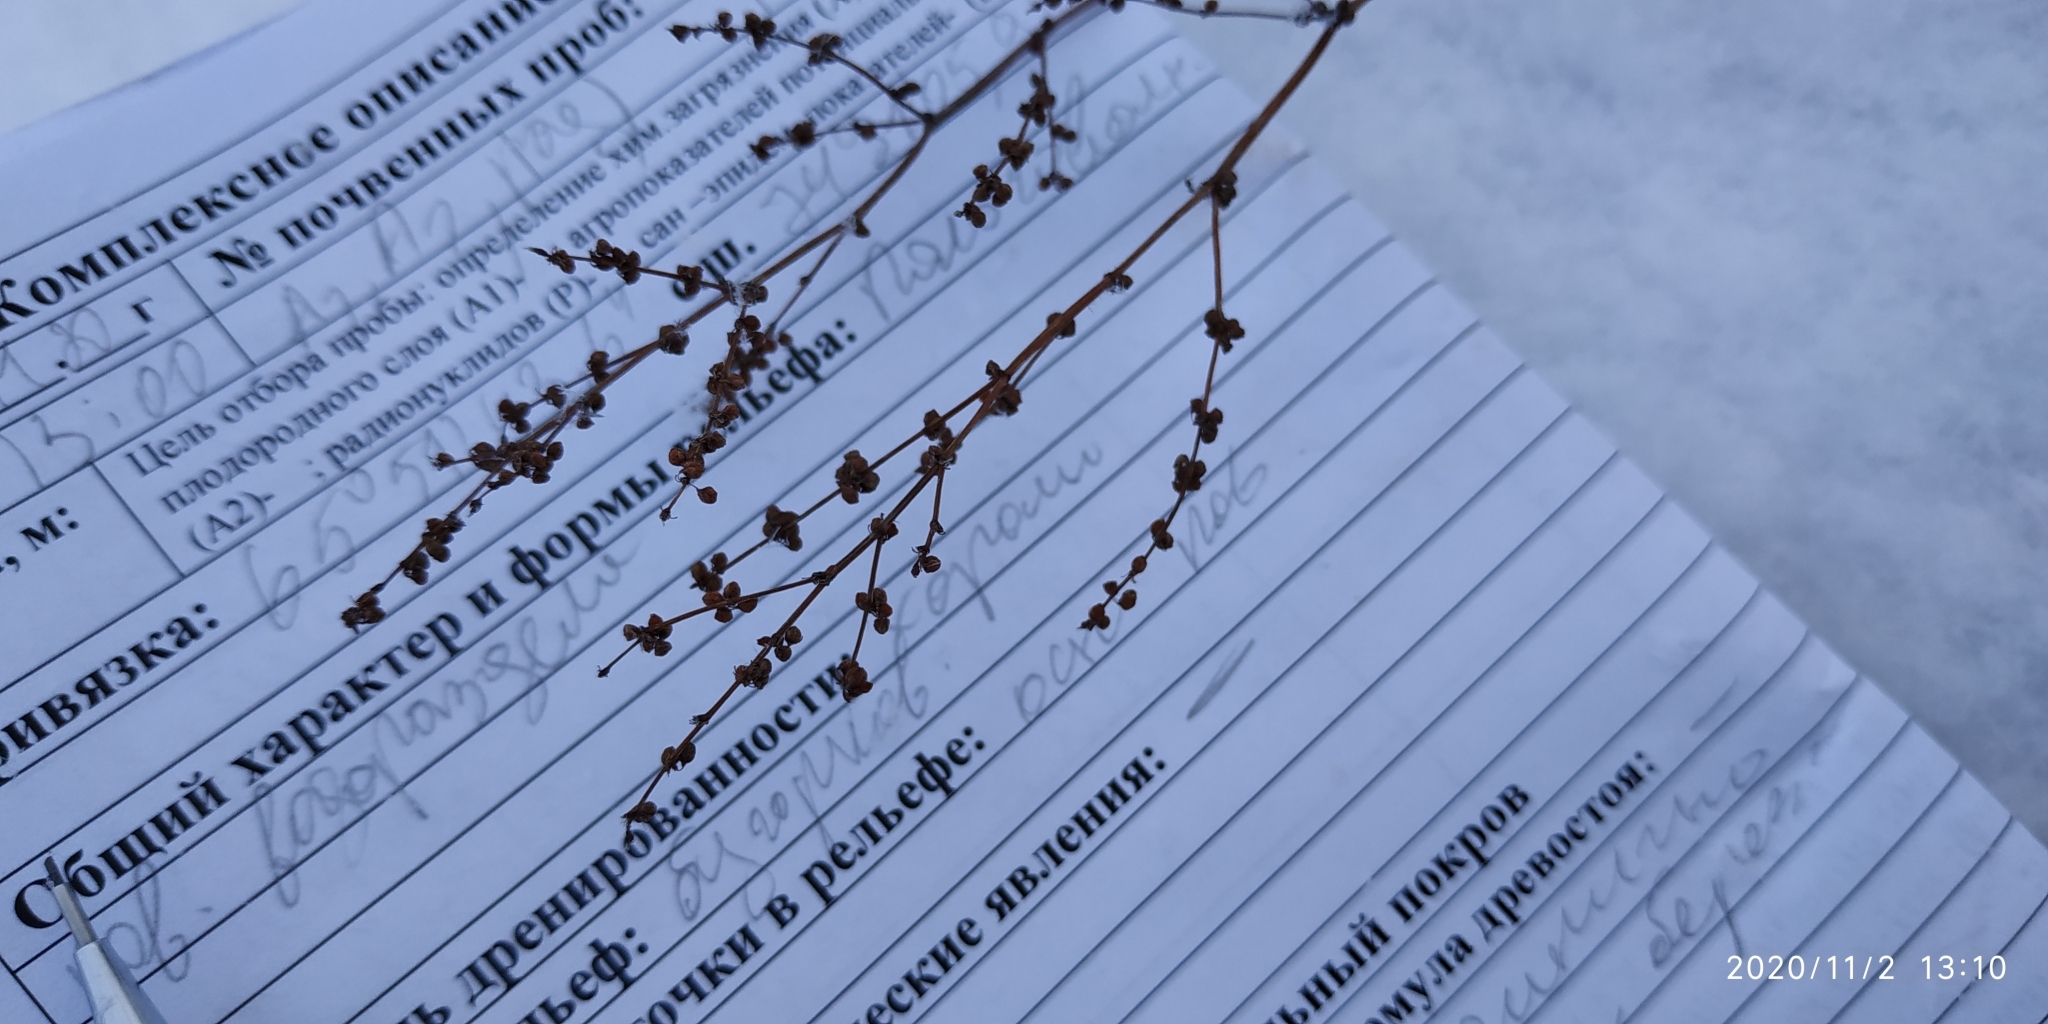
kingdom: Plantae
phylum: Tracheophyta
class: Magnoliopsida
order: Caryophyllales
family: Polygonaceae
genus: Rumex
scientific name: Rumex acetosella
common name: Common sheep sorrel
